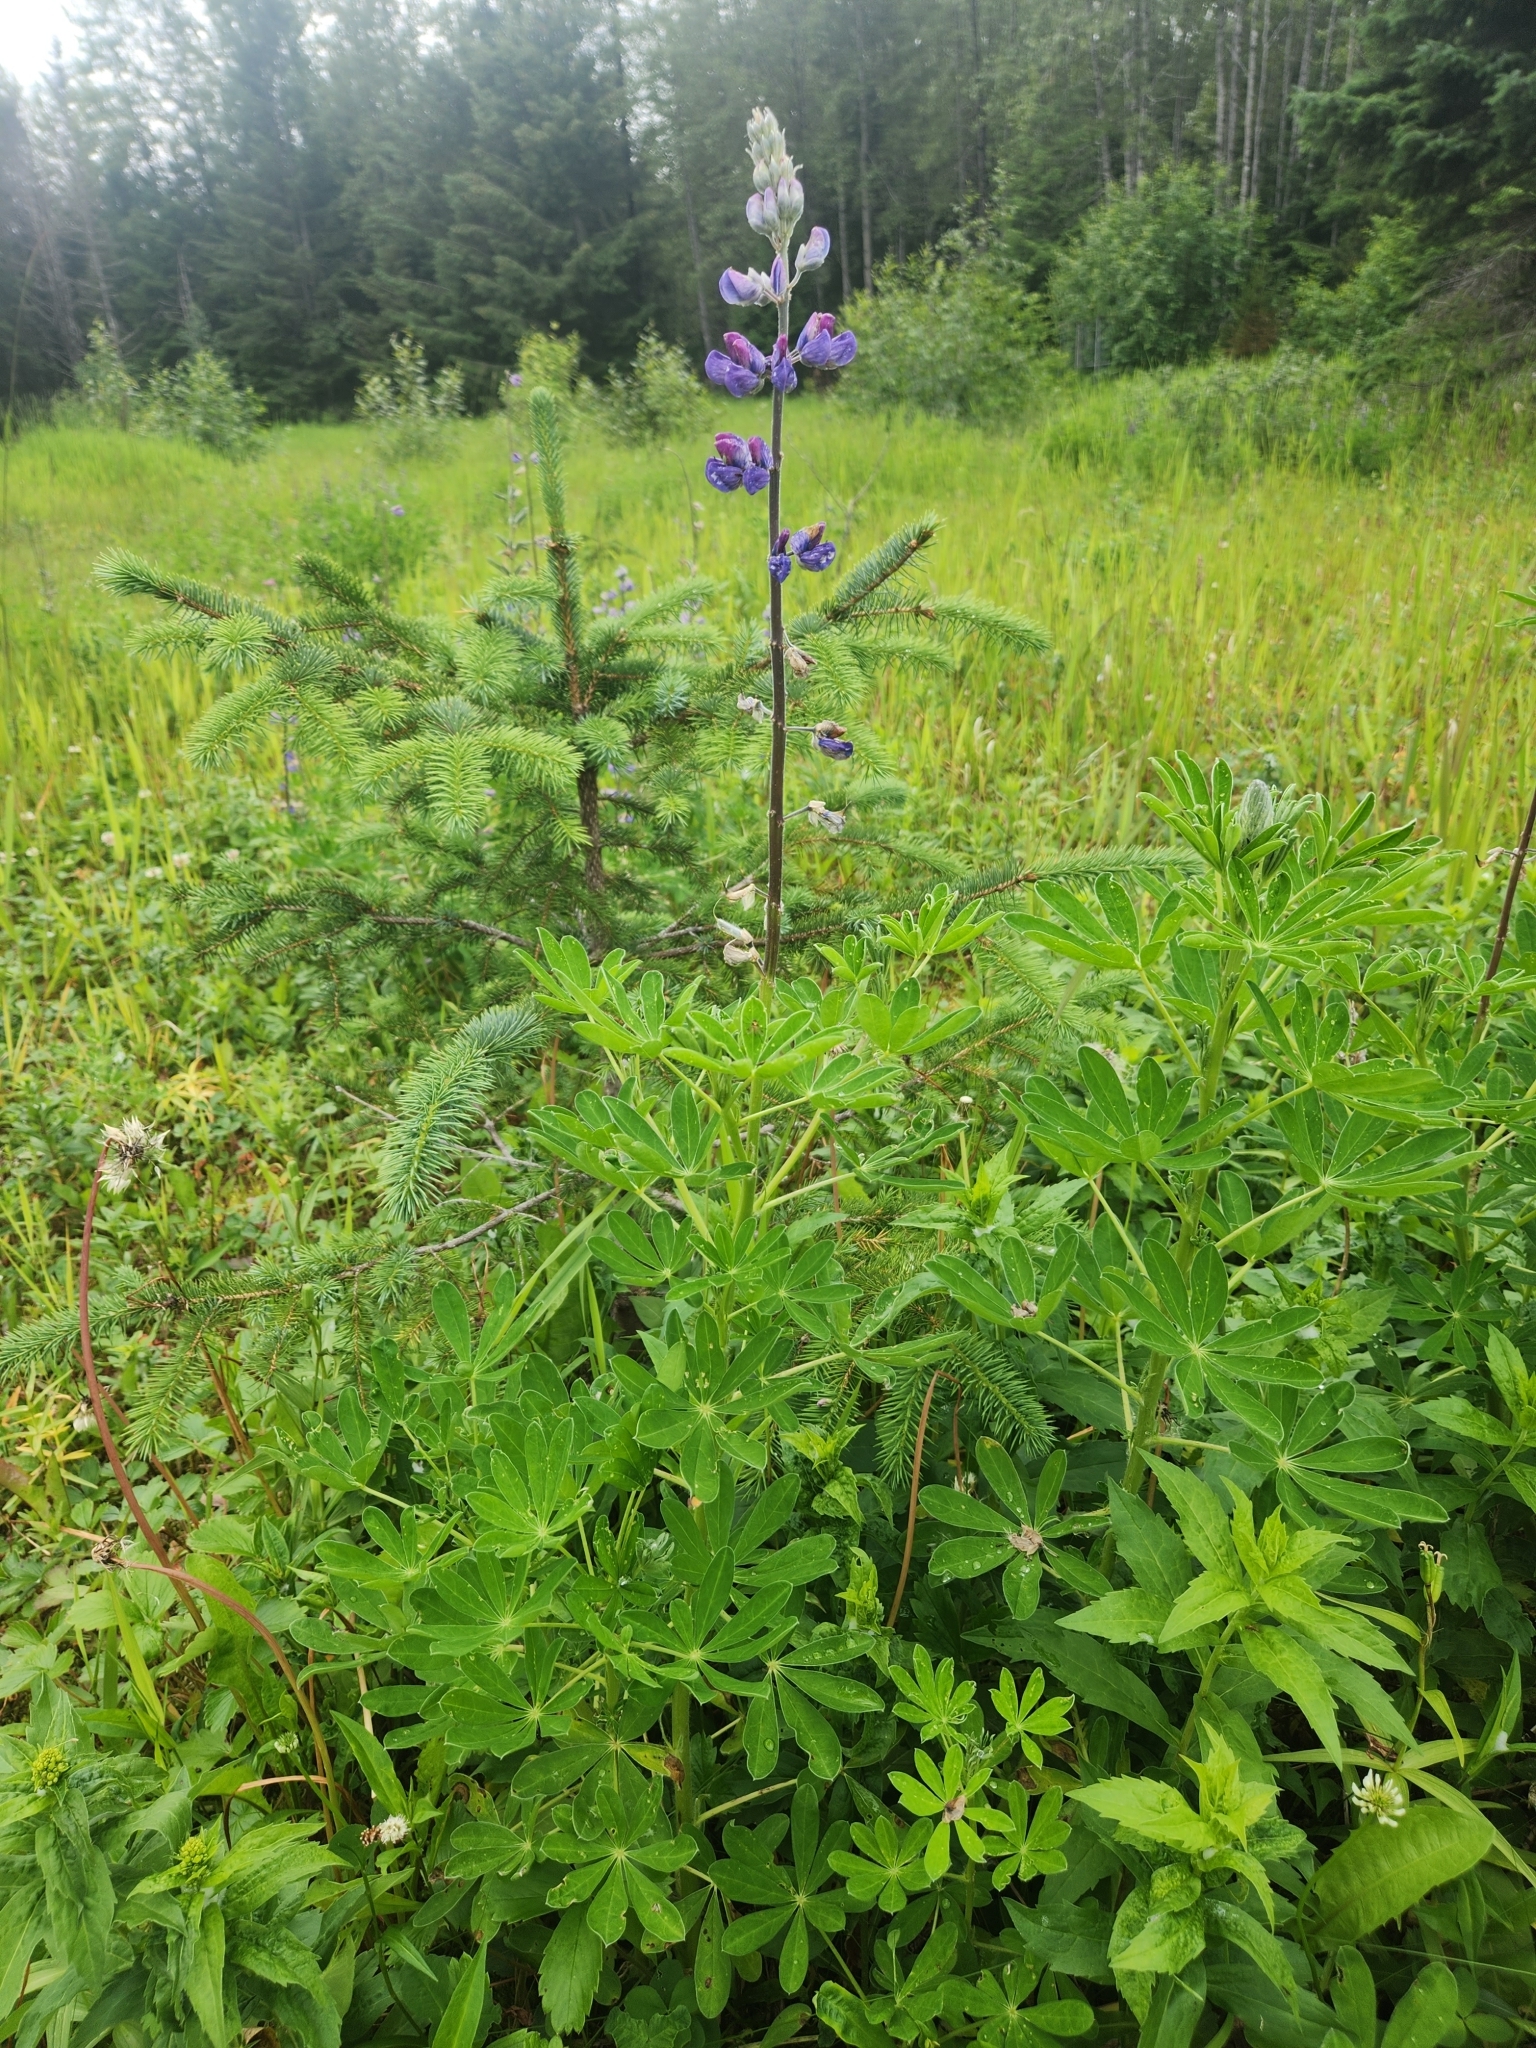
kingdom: Plantae
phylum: Tracheophyta
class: Magnoliopsida
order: Fabales
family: Fabaceae
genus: Lupinus
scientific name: Lupinus nootkatensis
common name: Nootka lupine
